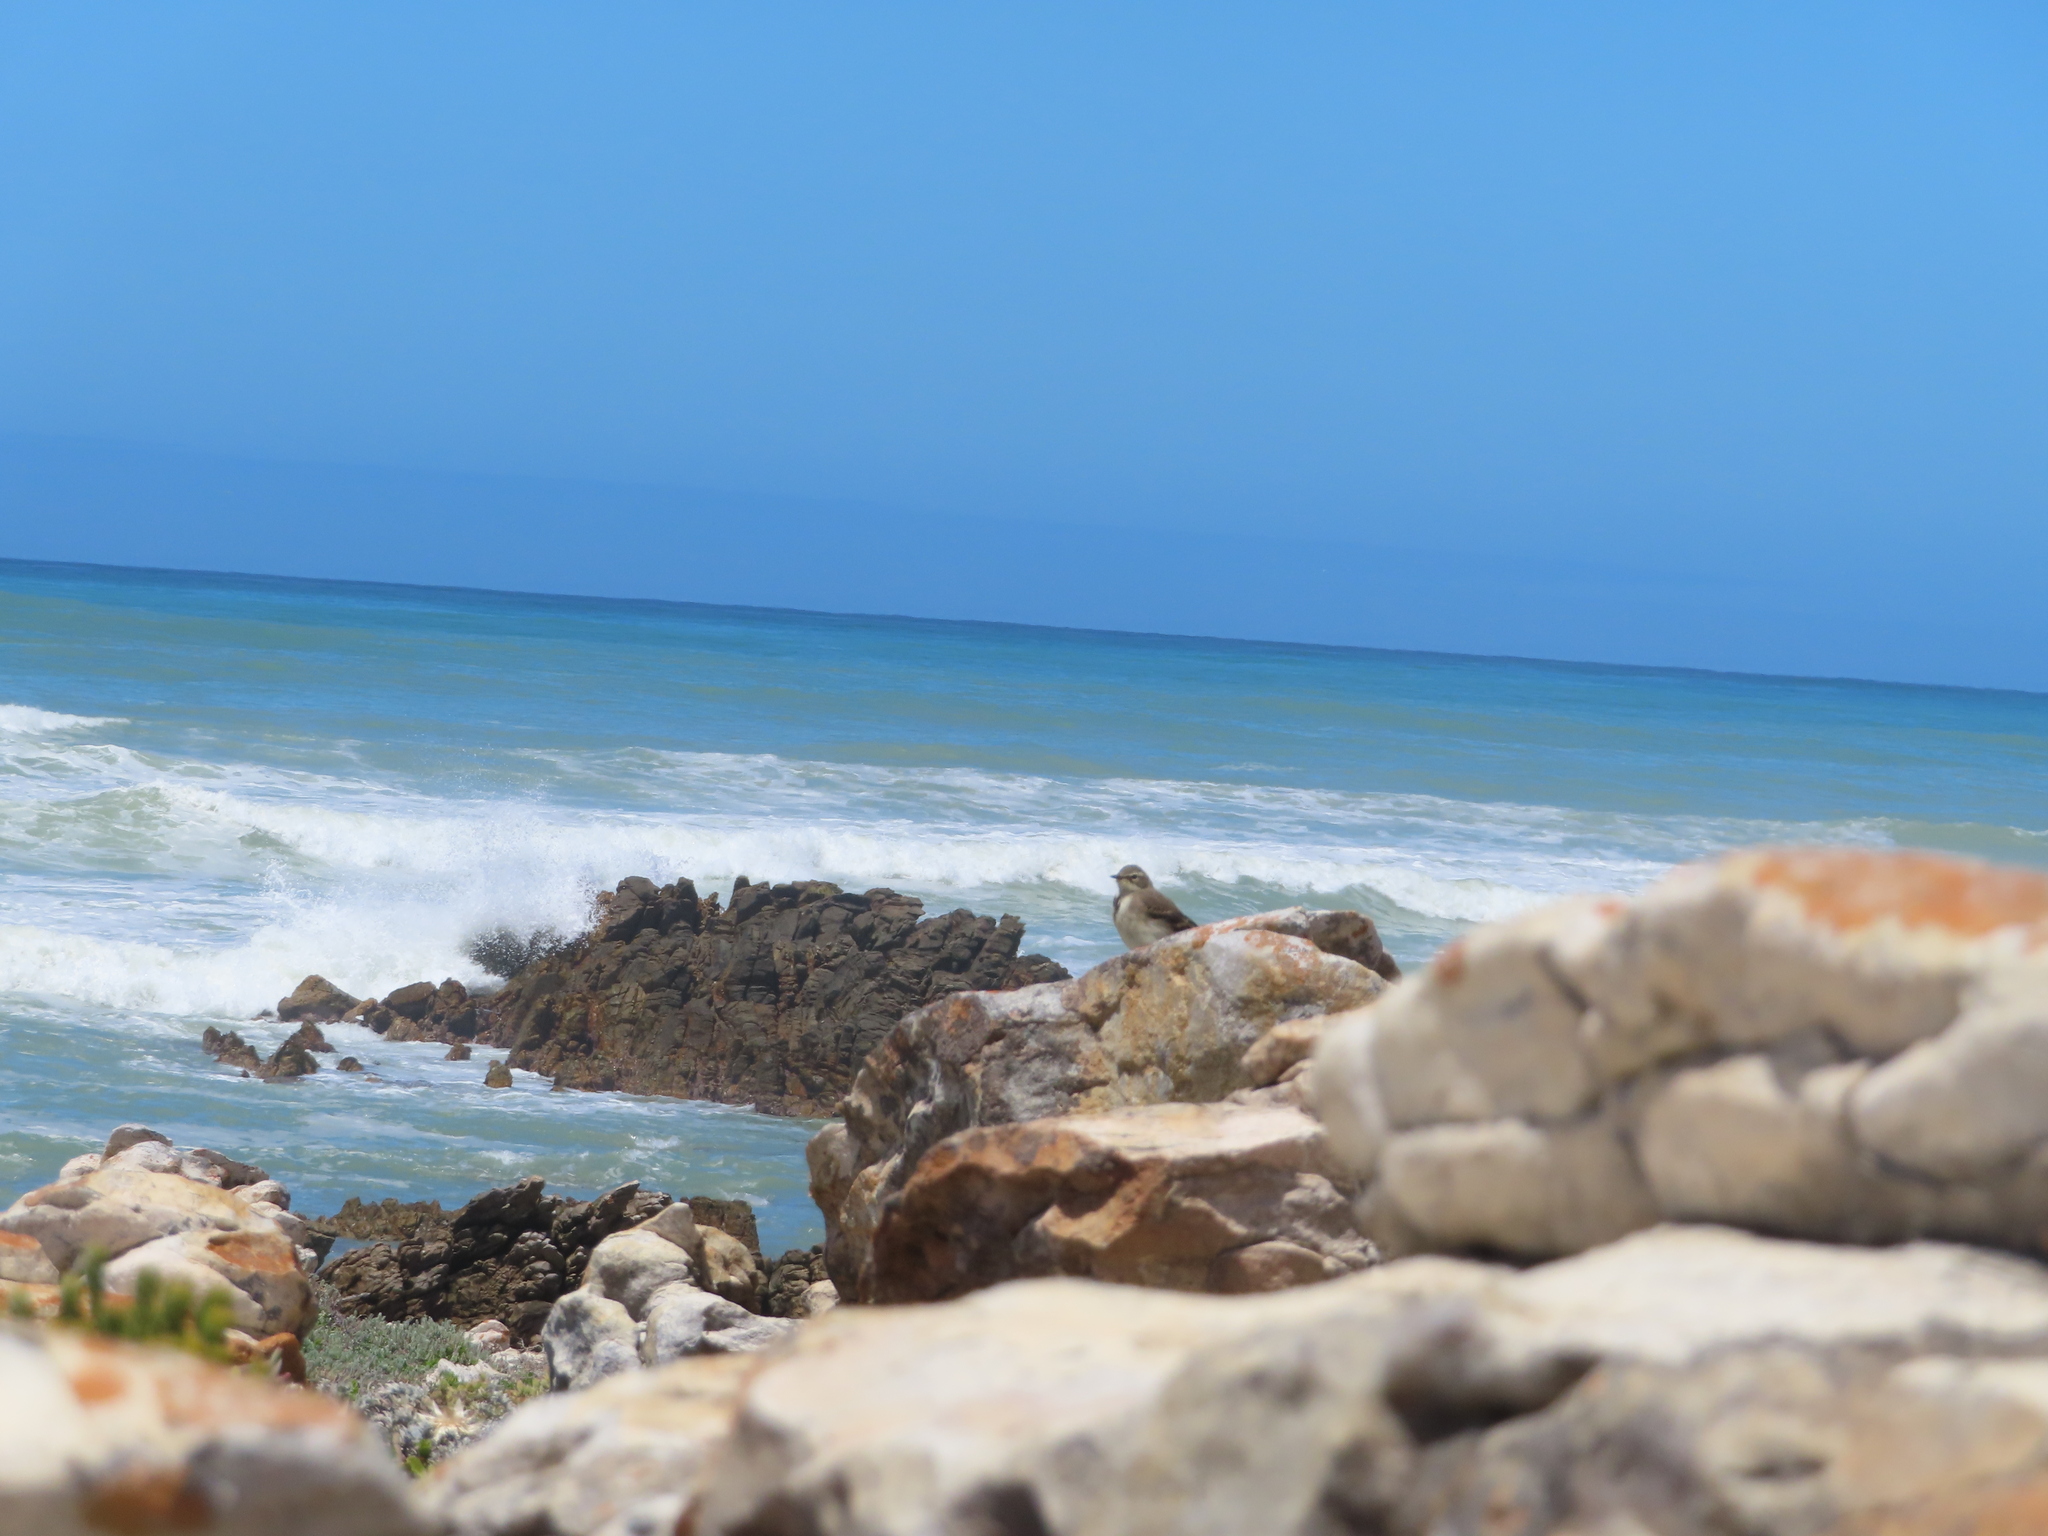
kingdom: Animalia
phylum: Chordata
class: Aves
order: Passeriformes
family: Motacillidae
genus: Motacilla
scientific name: Motacilla capensis
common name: Cape wagtail
